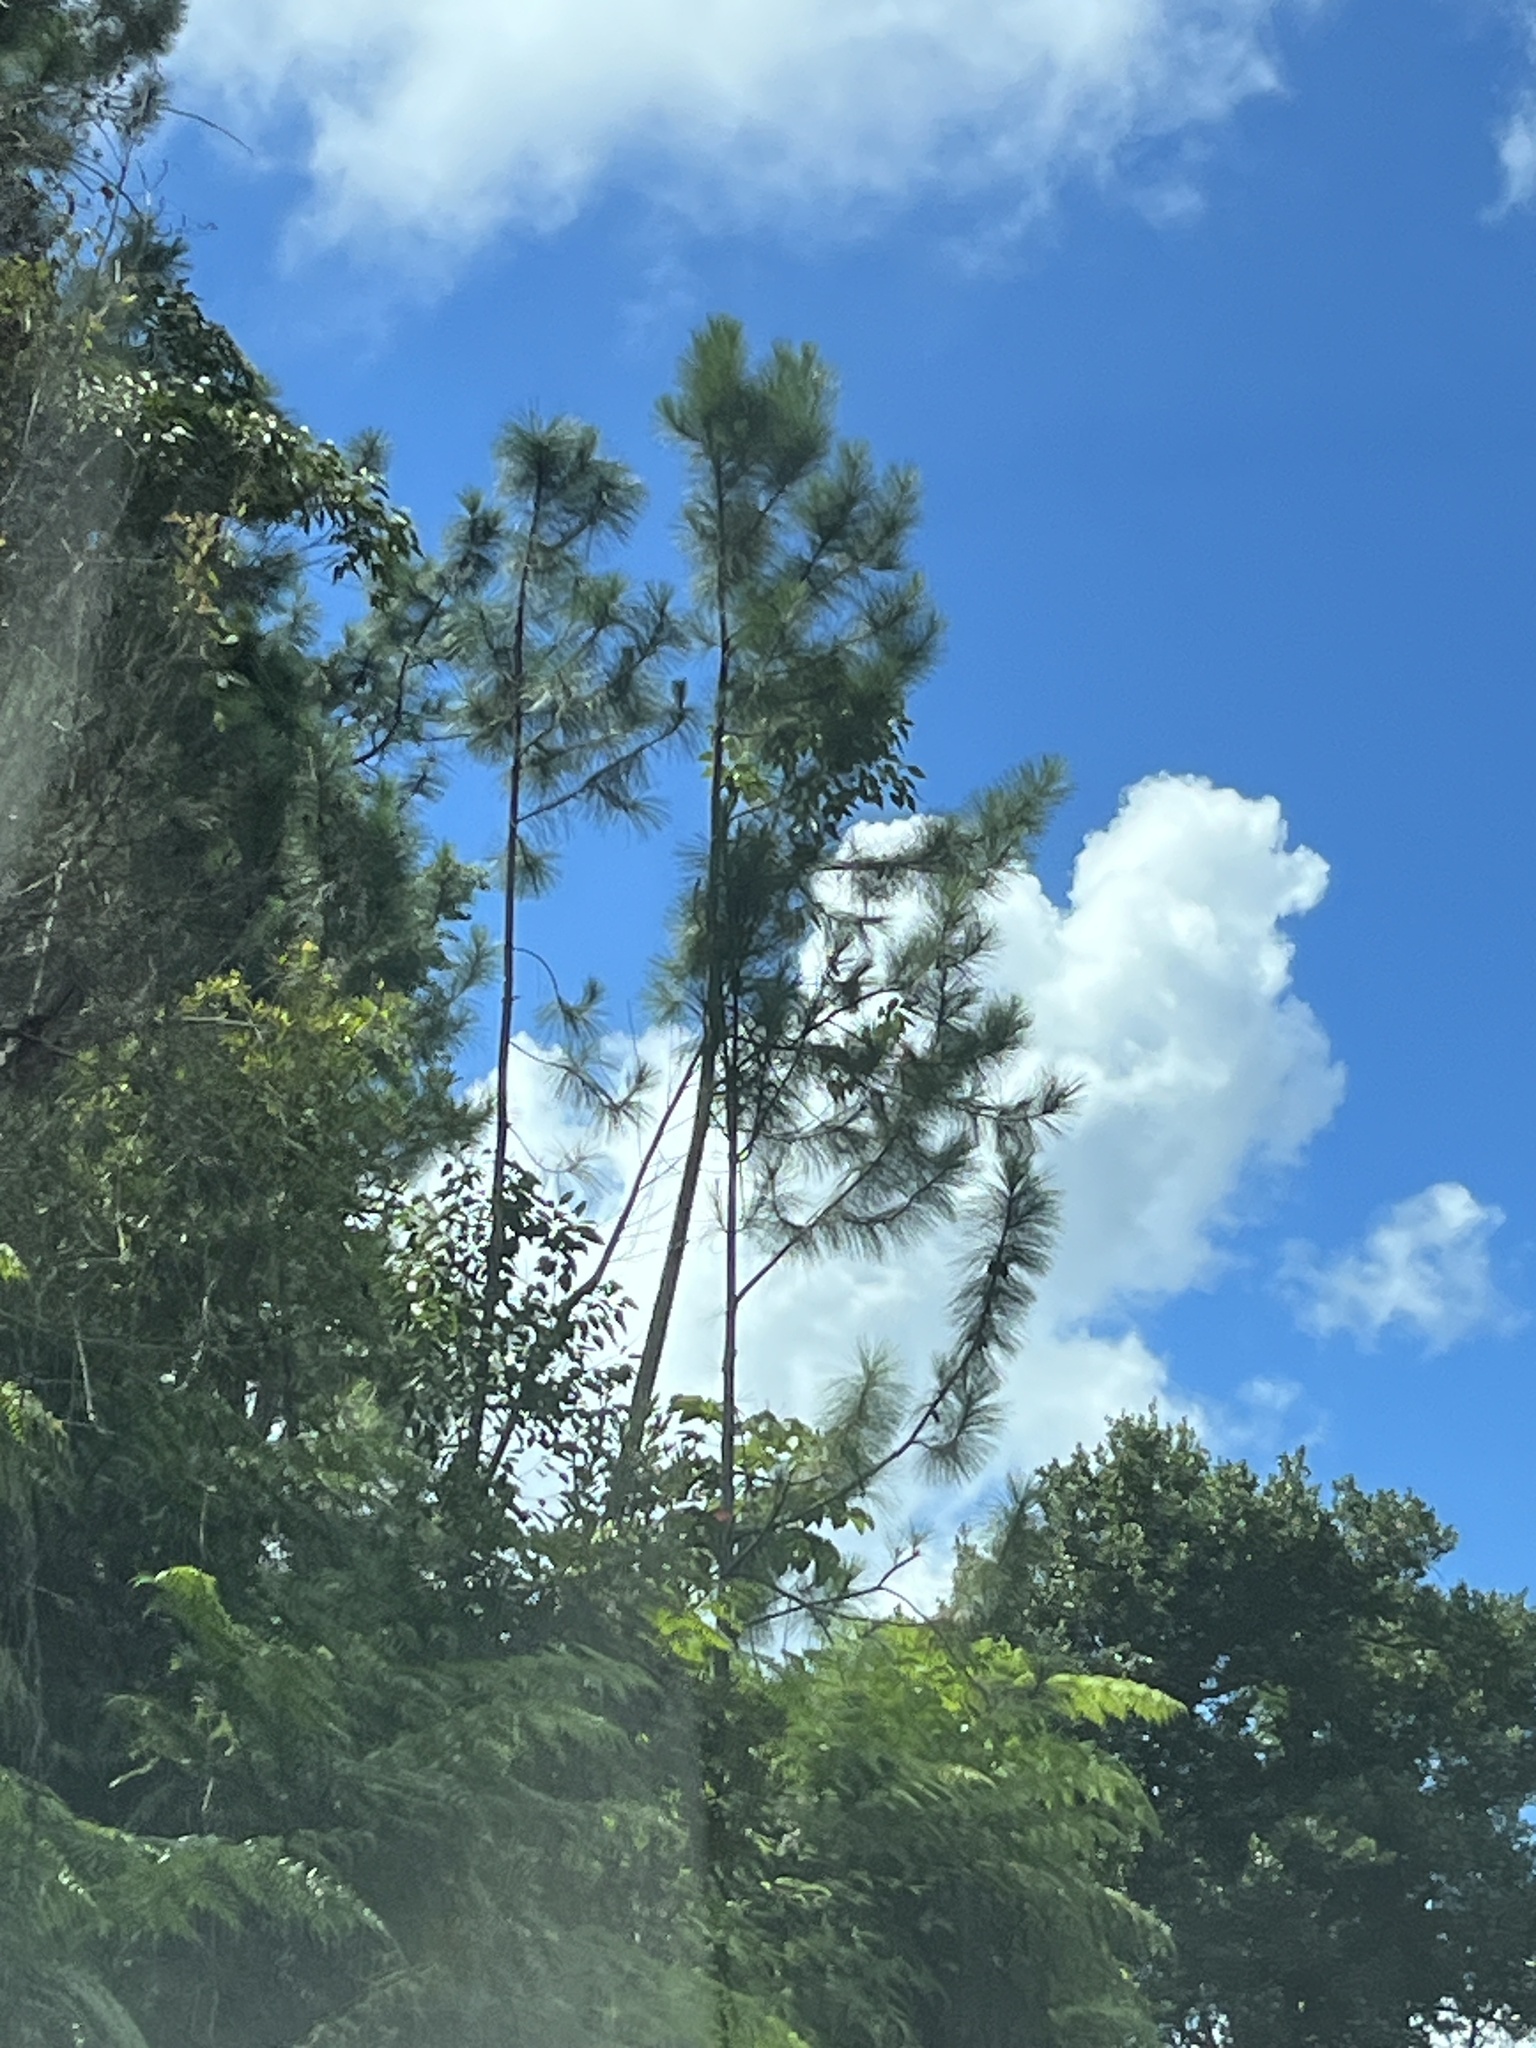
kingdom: Plantae
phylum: Tracheophyta
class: Pinopsida
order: Pinales
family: Pinaceae
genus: Pinus
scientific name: Pinus caribaea
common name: Caribbean pine
